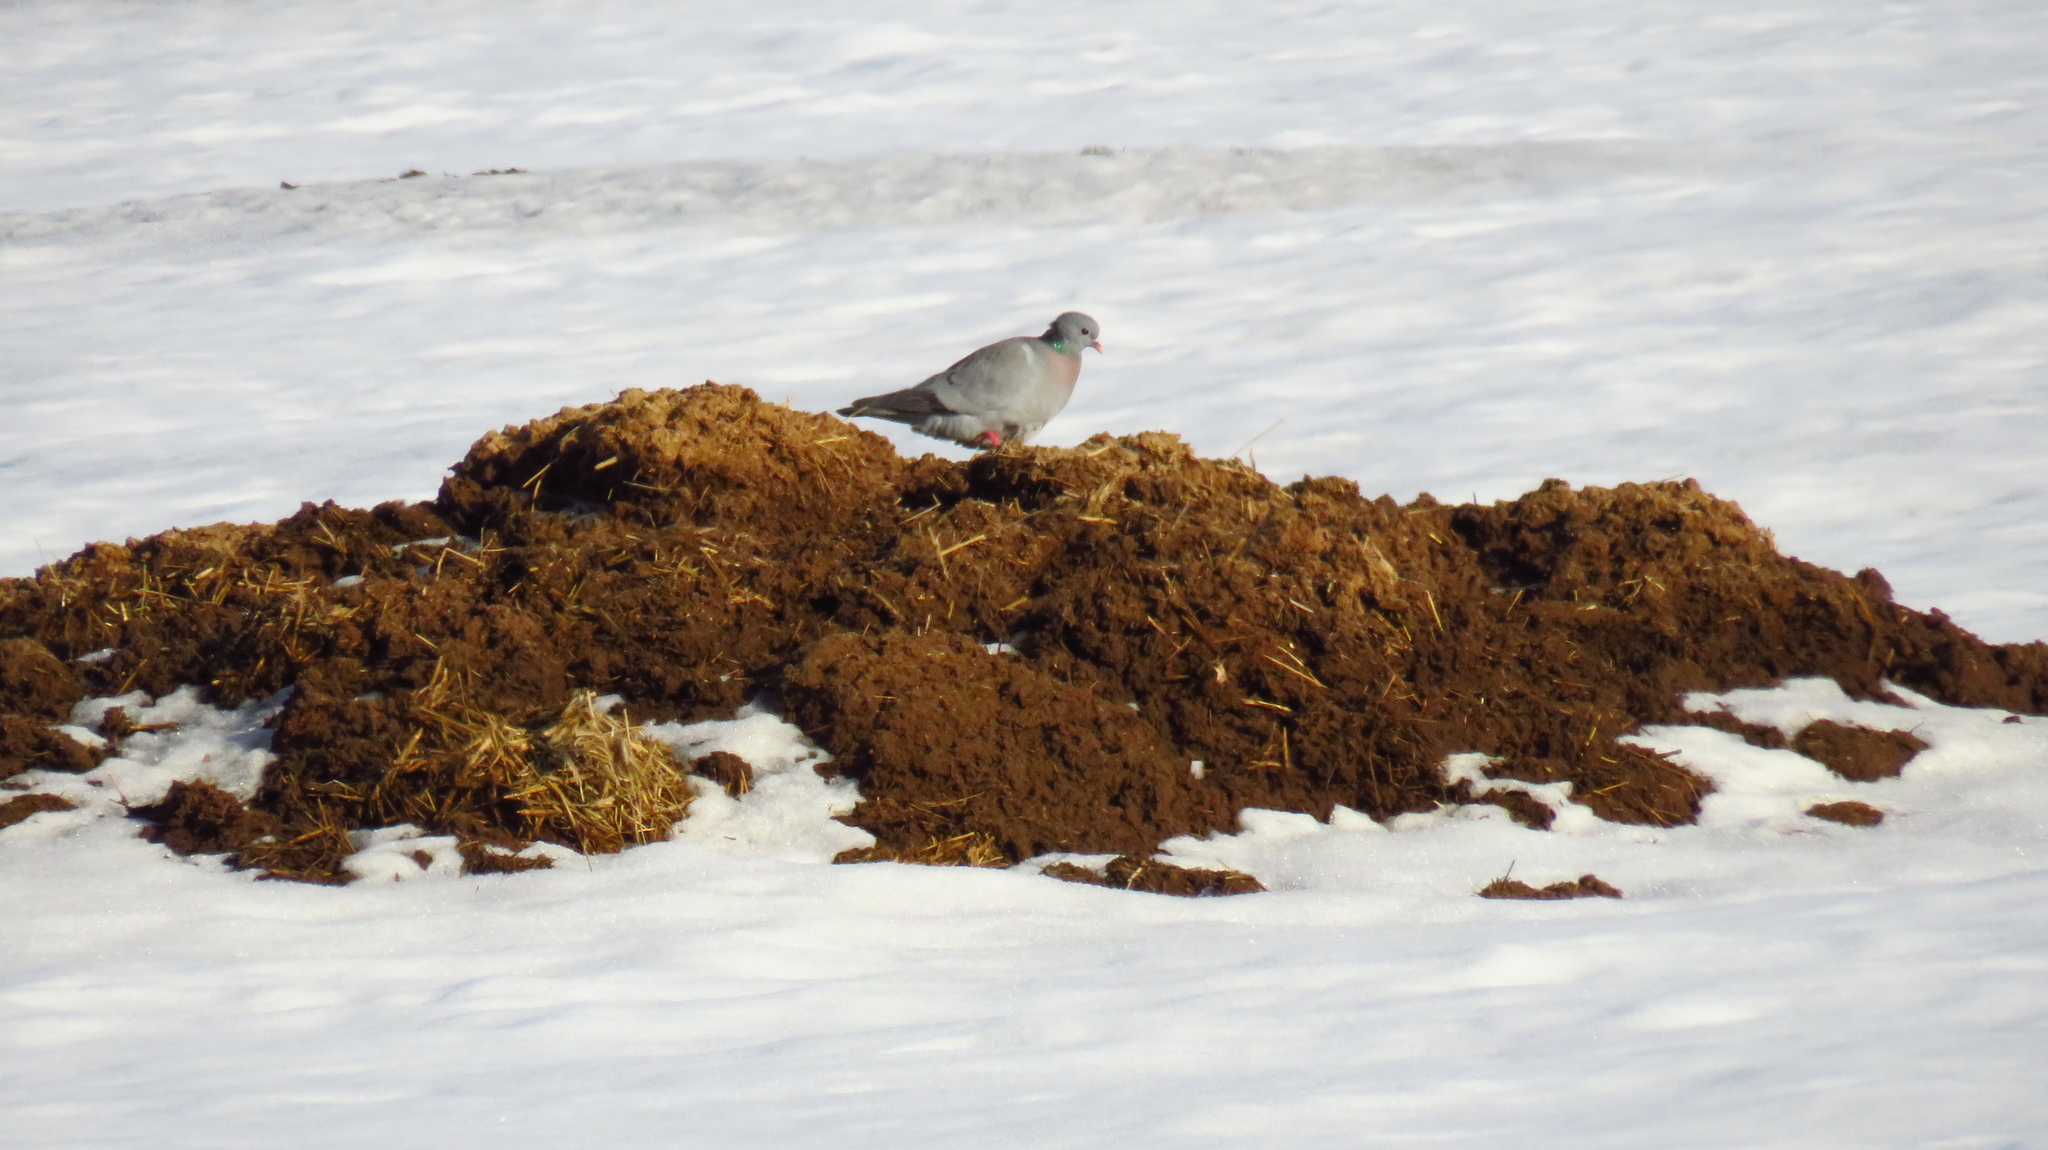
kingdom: Animalia
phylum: Chordata
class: Aves
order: Columbiformes
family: Columbidae
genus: Columba
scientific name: Columba oenas
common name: Stock dove
